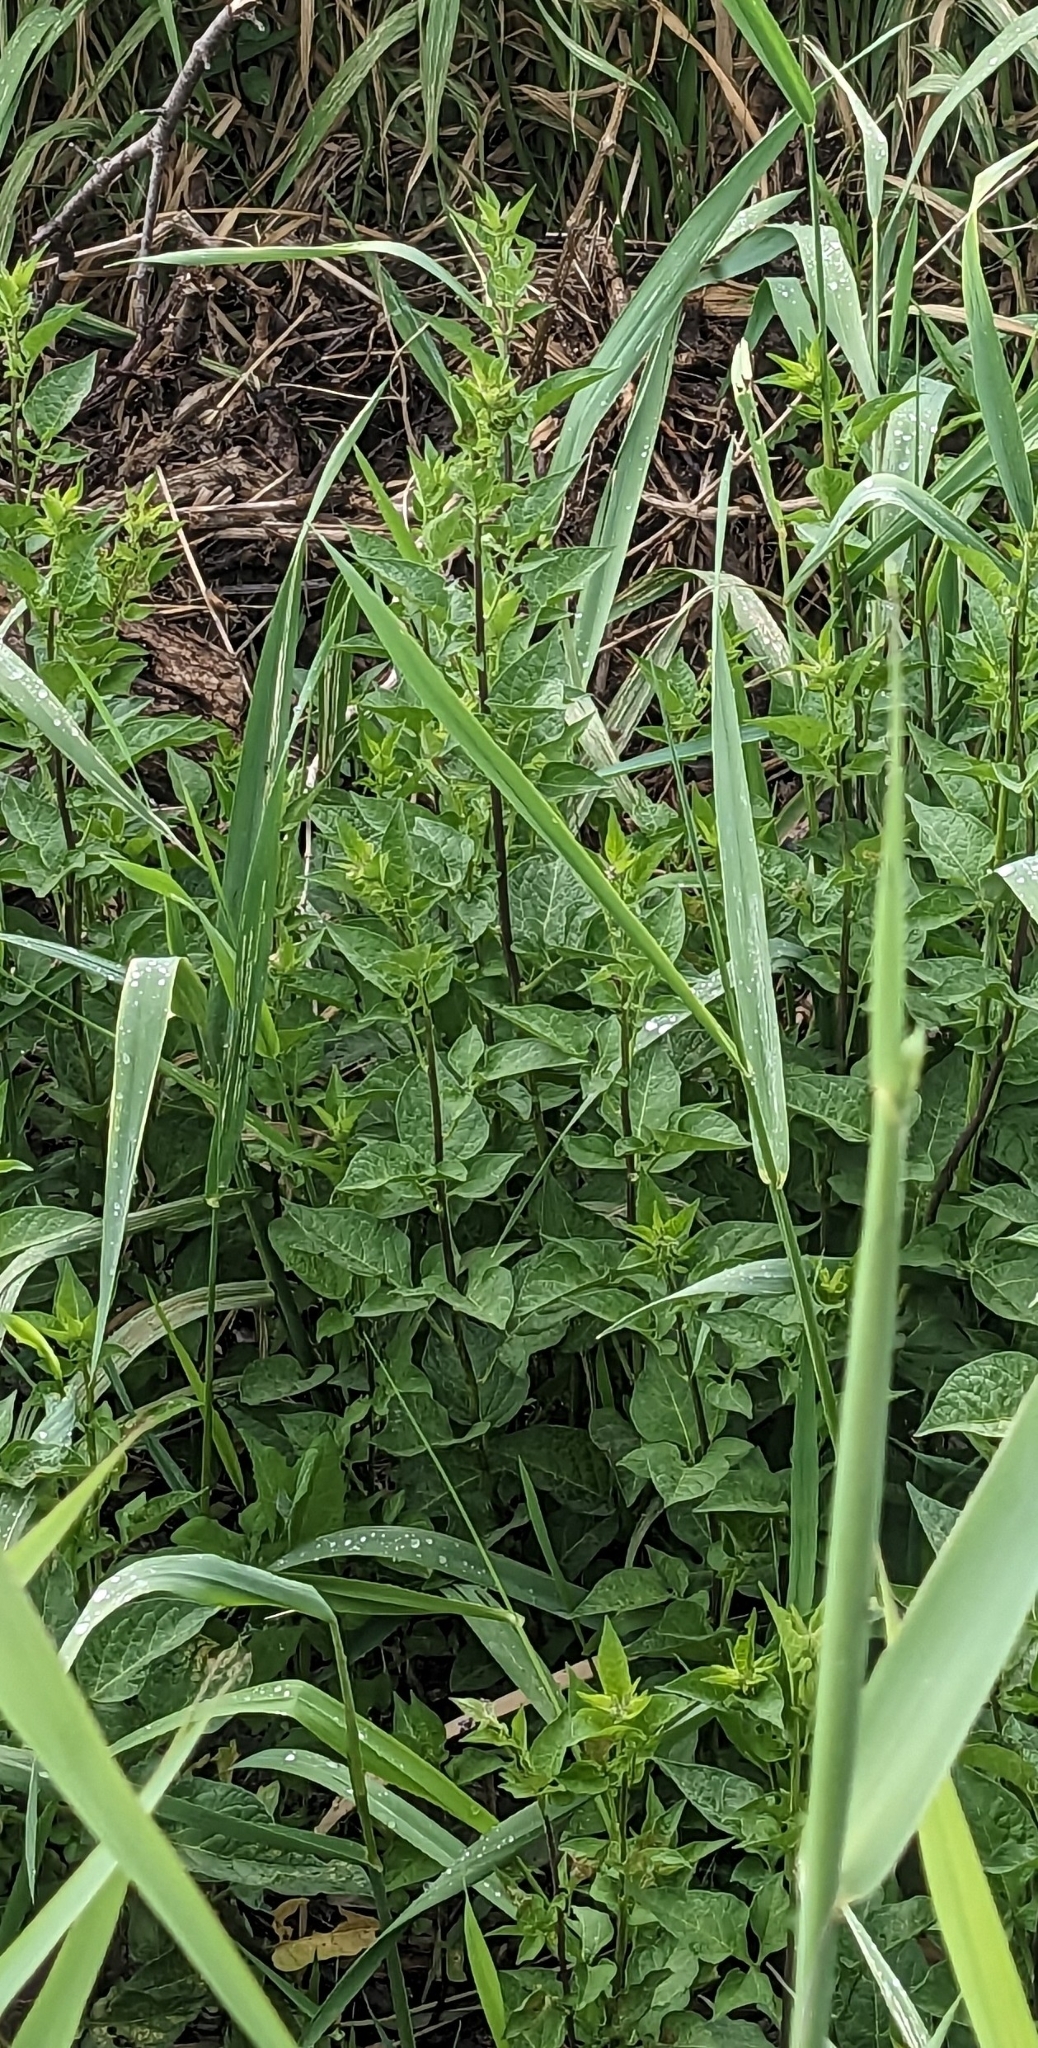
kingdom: Plantae
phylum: Tracheophyta
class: Magnoliopsida
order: Solanales
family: Solanaceae
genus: Solanum
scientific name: Solanum dulcamara
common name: Climbing nightshade
